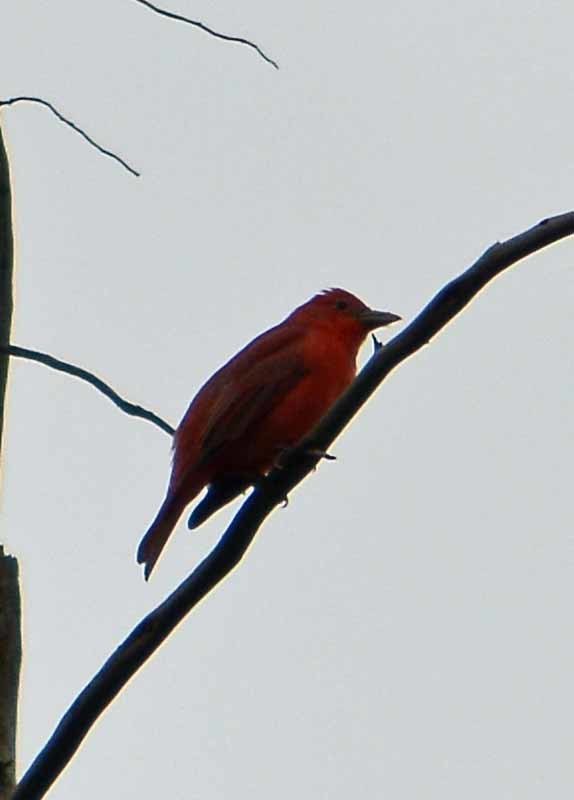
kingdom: Animalia
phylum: Chordata
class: Aves
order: Passeriformes
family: Cardinalidae
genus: Piranga
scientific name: Piranga flava
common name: Red tanager
